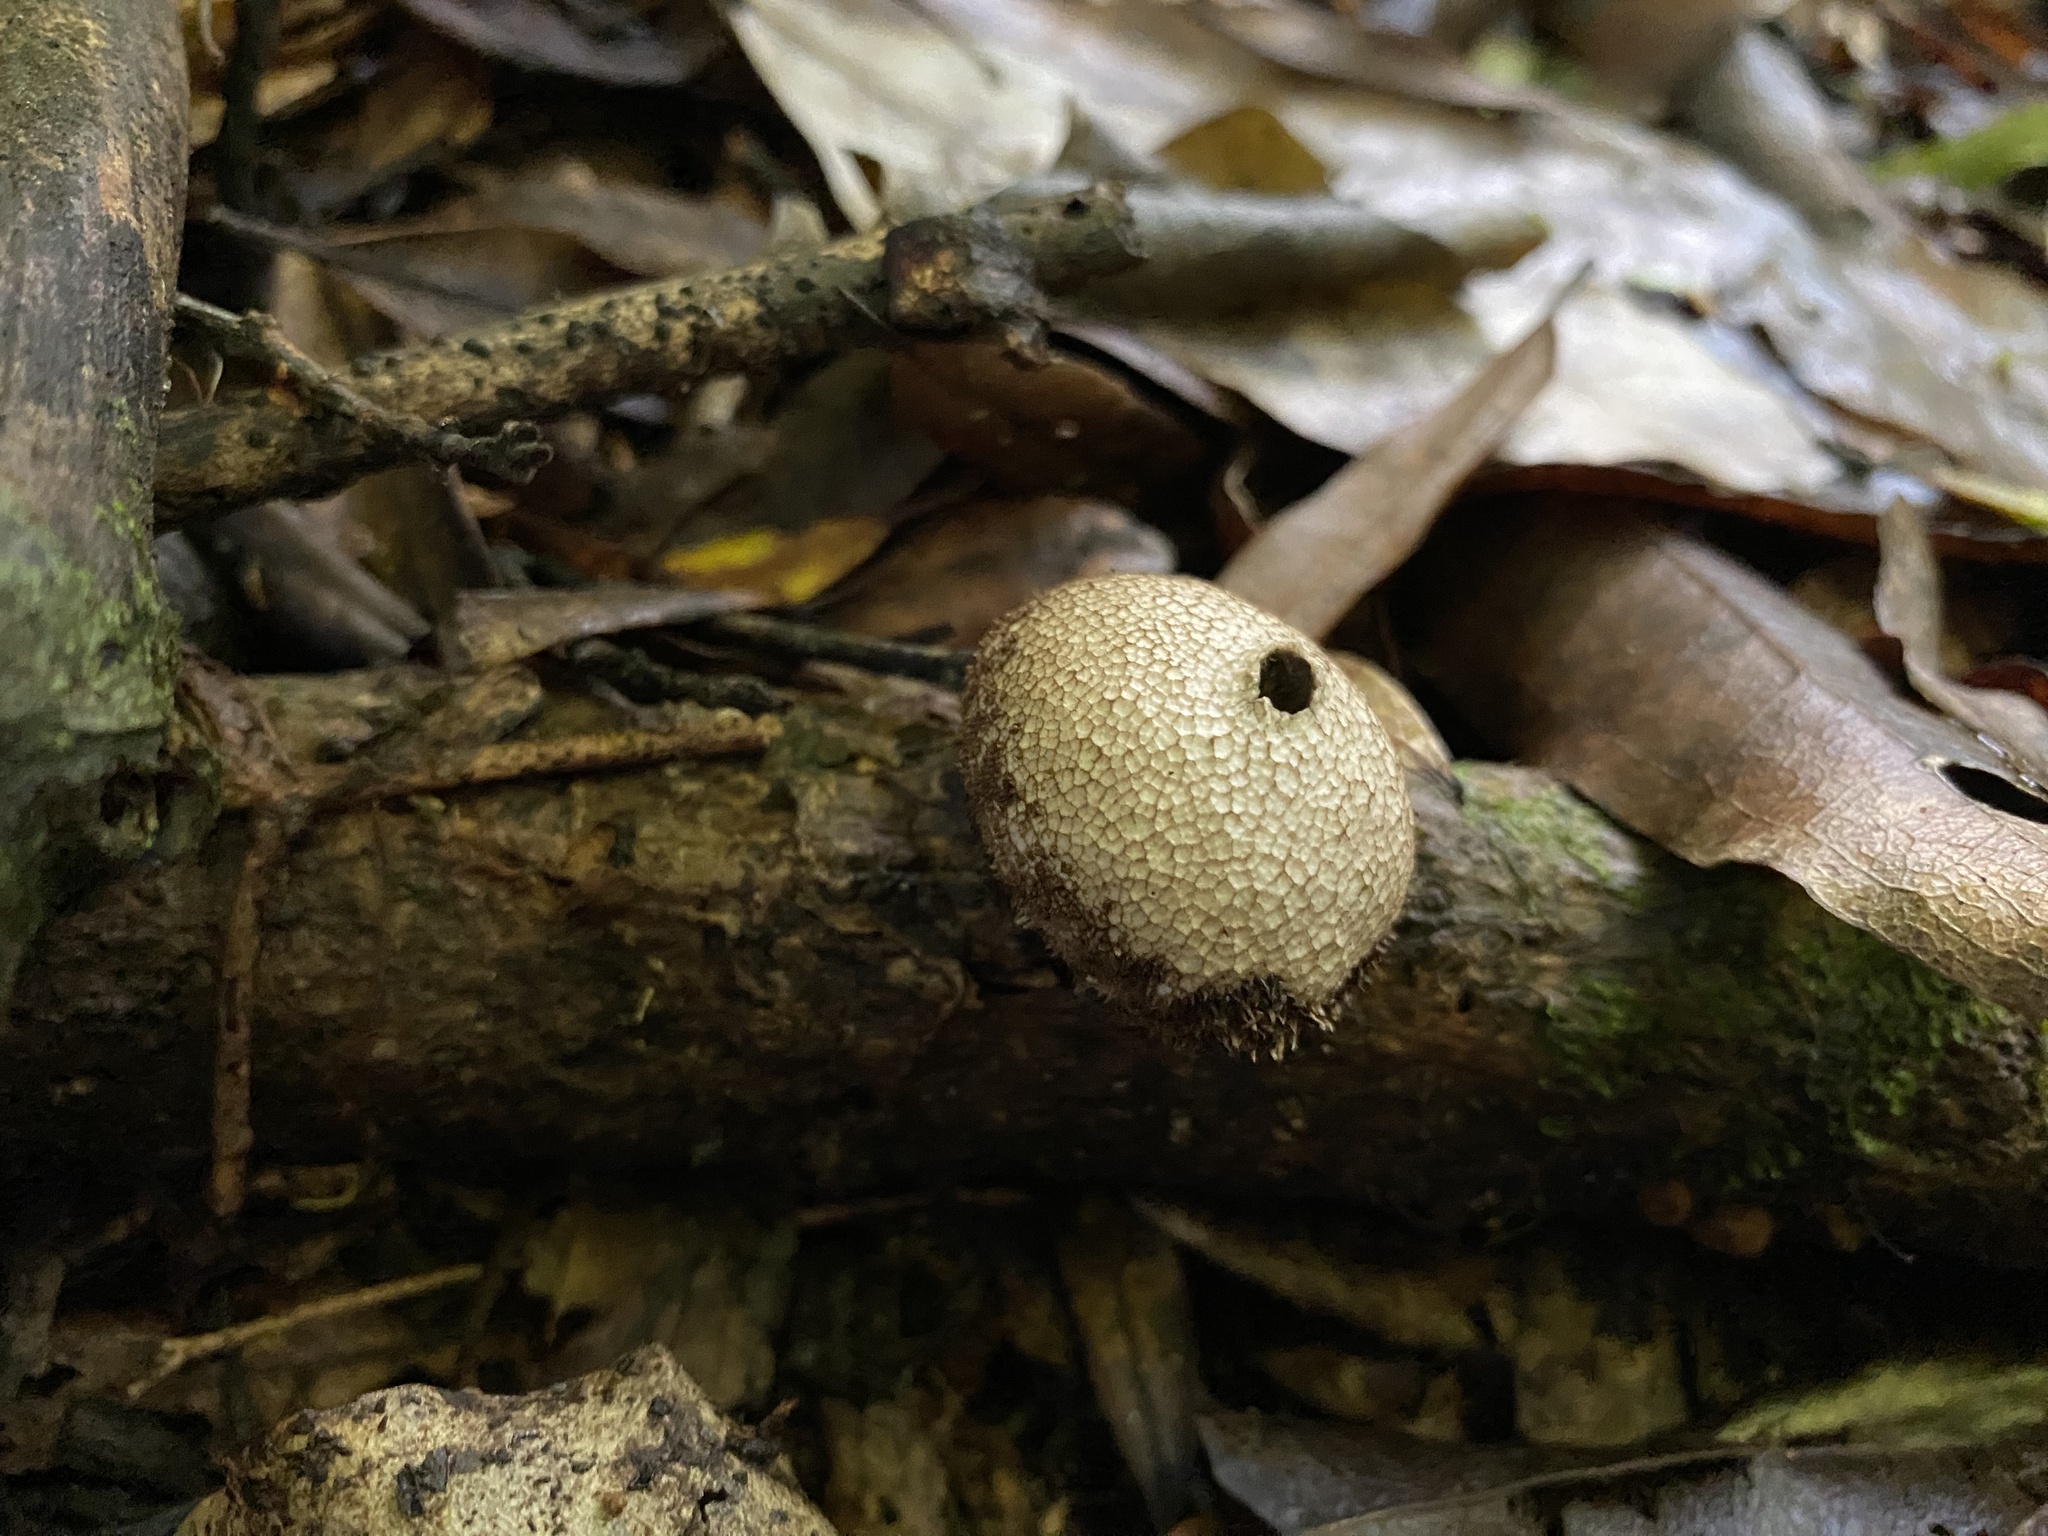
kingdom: Fungi
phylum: Basidiomycota
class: Agaricomycetes
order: Agaricales
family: Lycoperdaceae
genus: Lycoperdon
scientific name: Lycoperdon compactum
